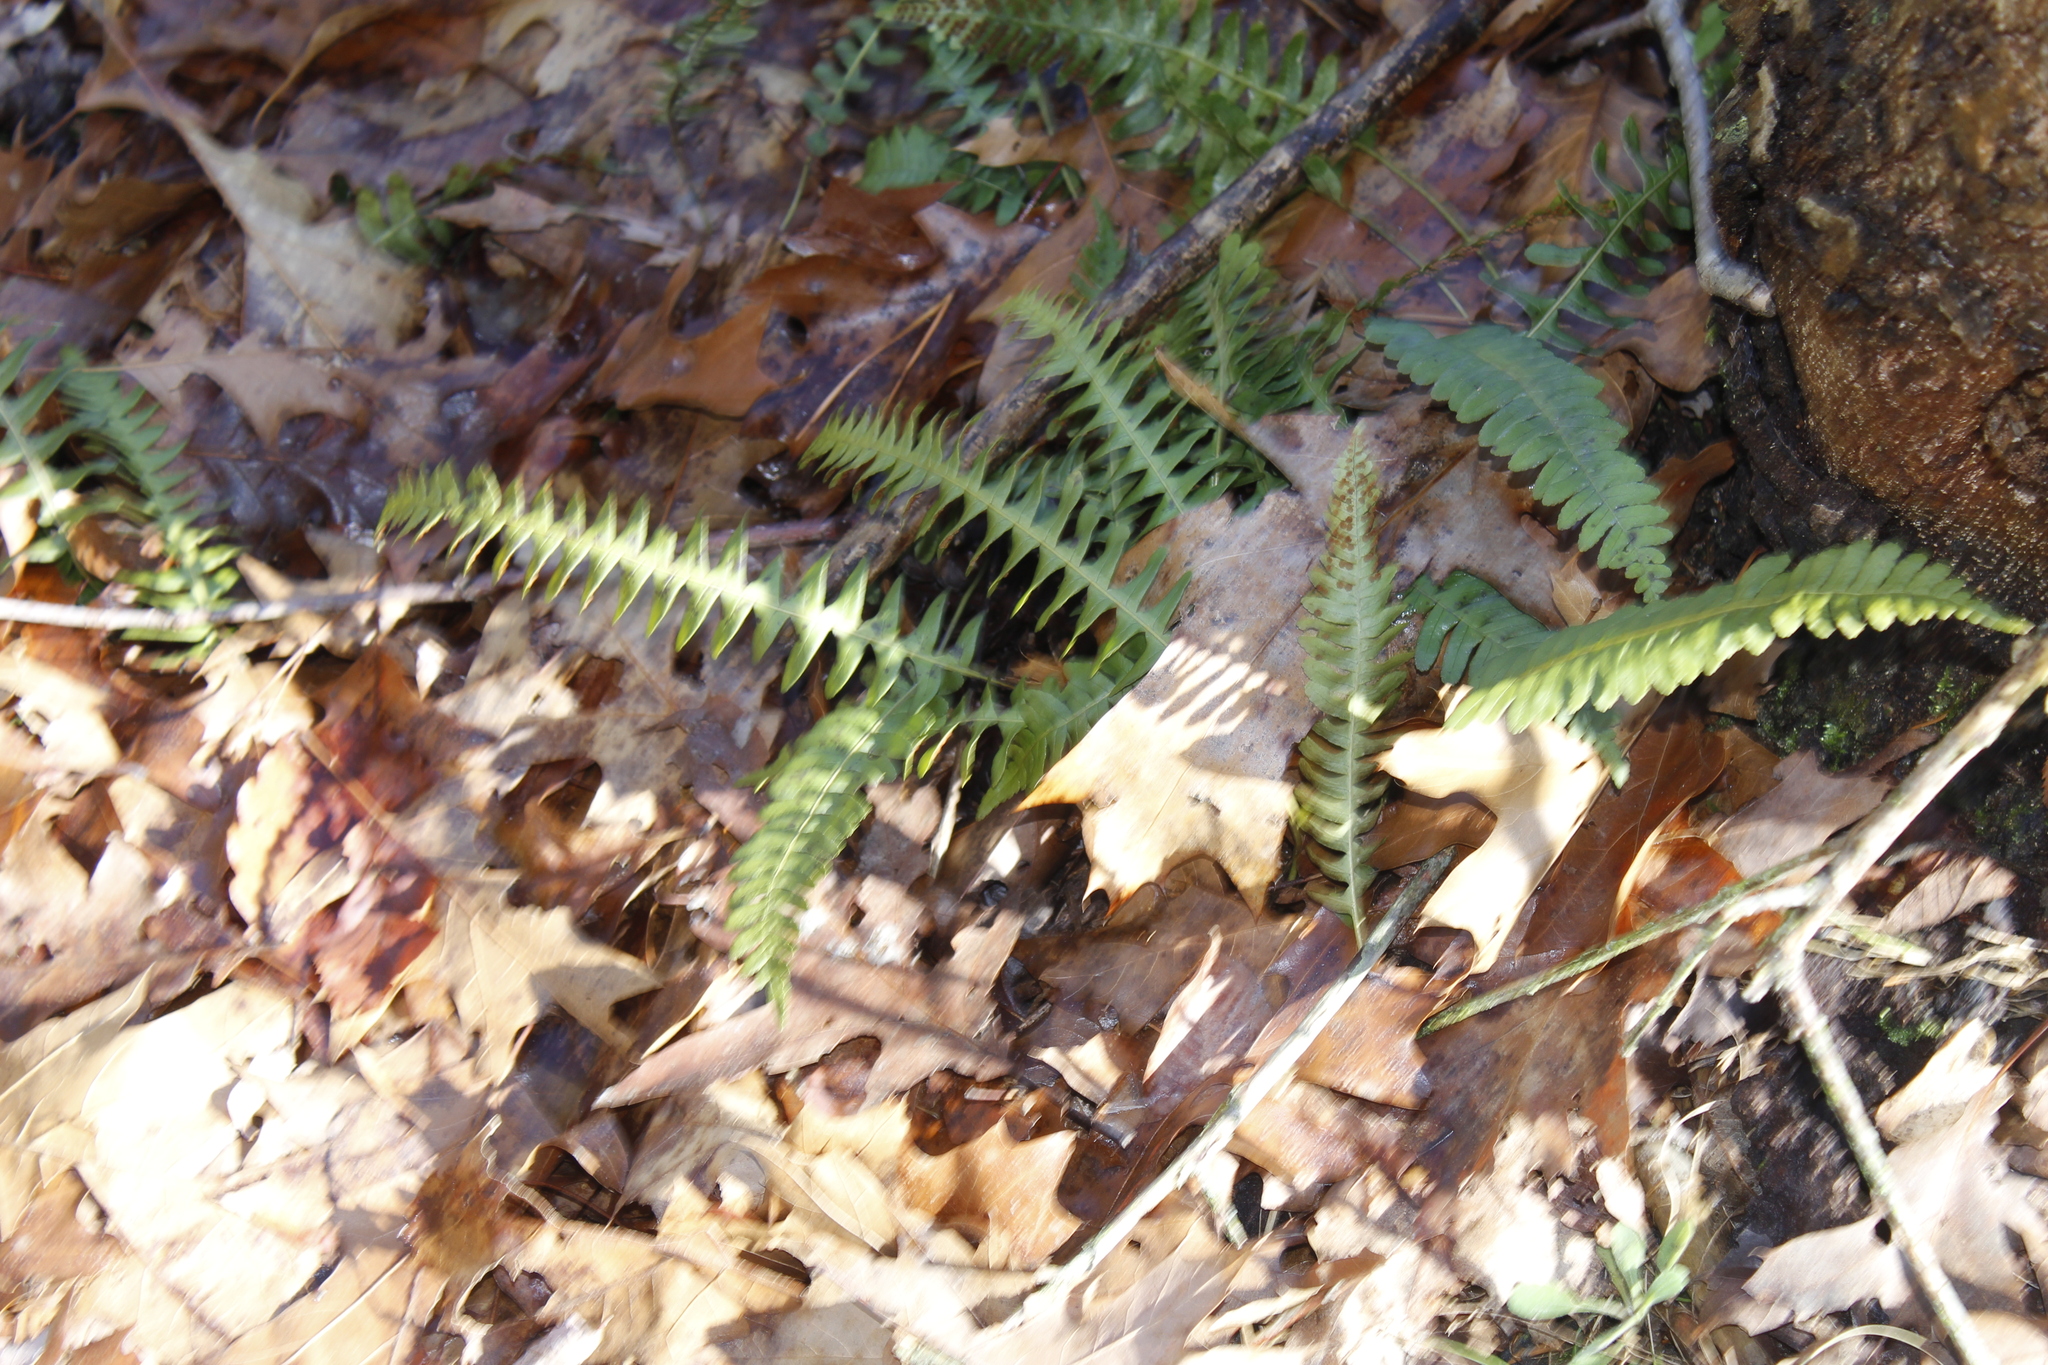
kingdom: Plantae
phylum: Tracheophyta
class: Polypodiopsida
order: Polypodiales
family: Polypodiaceae
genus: Polypodium
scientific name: Polypodium virginianum
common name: American wall fern
